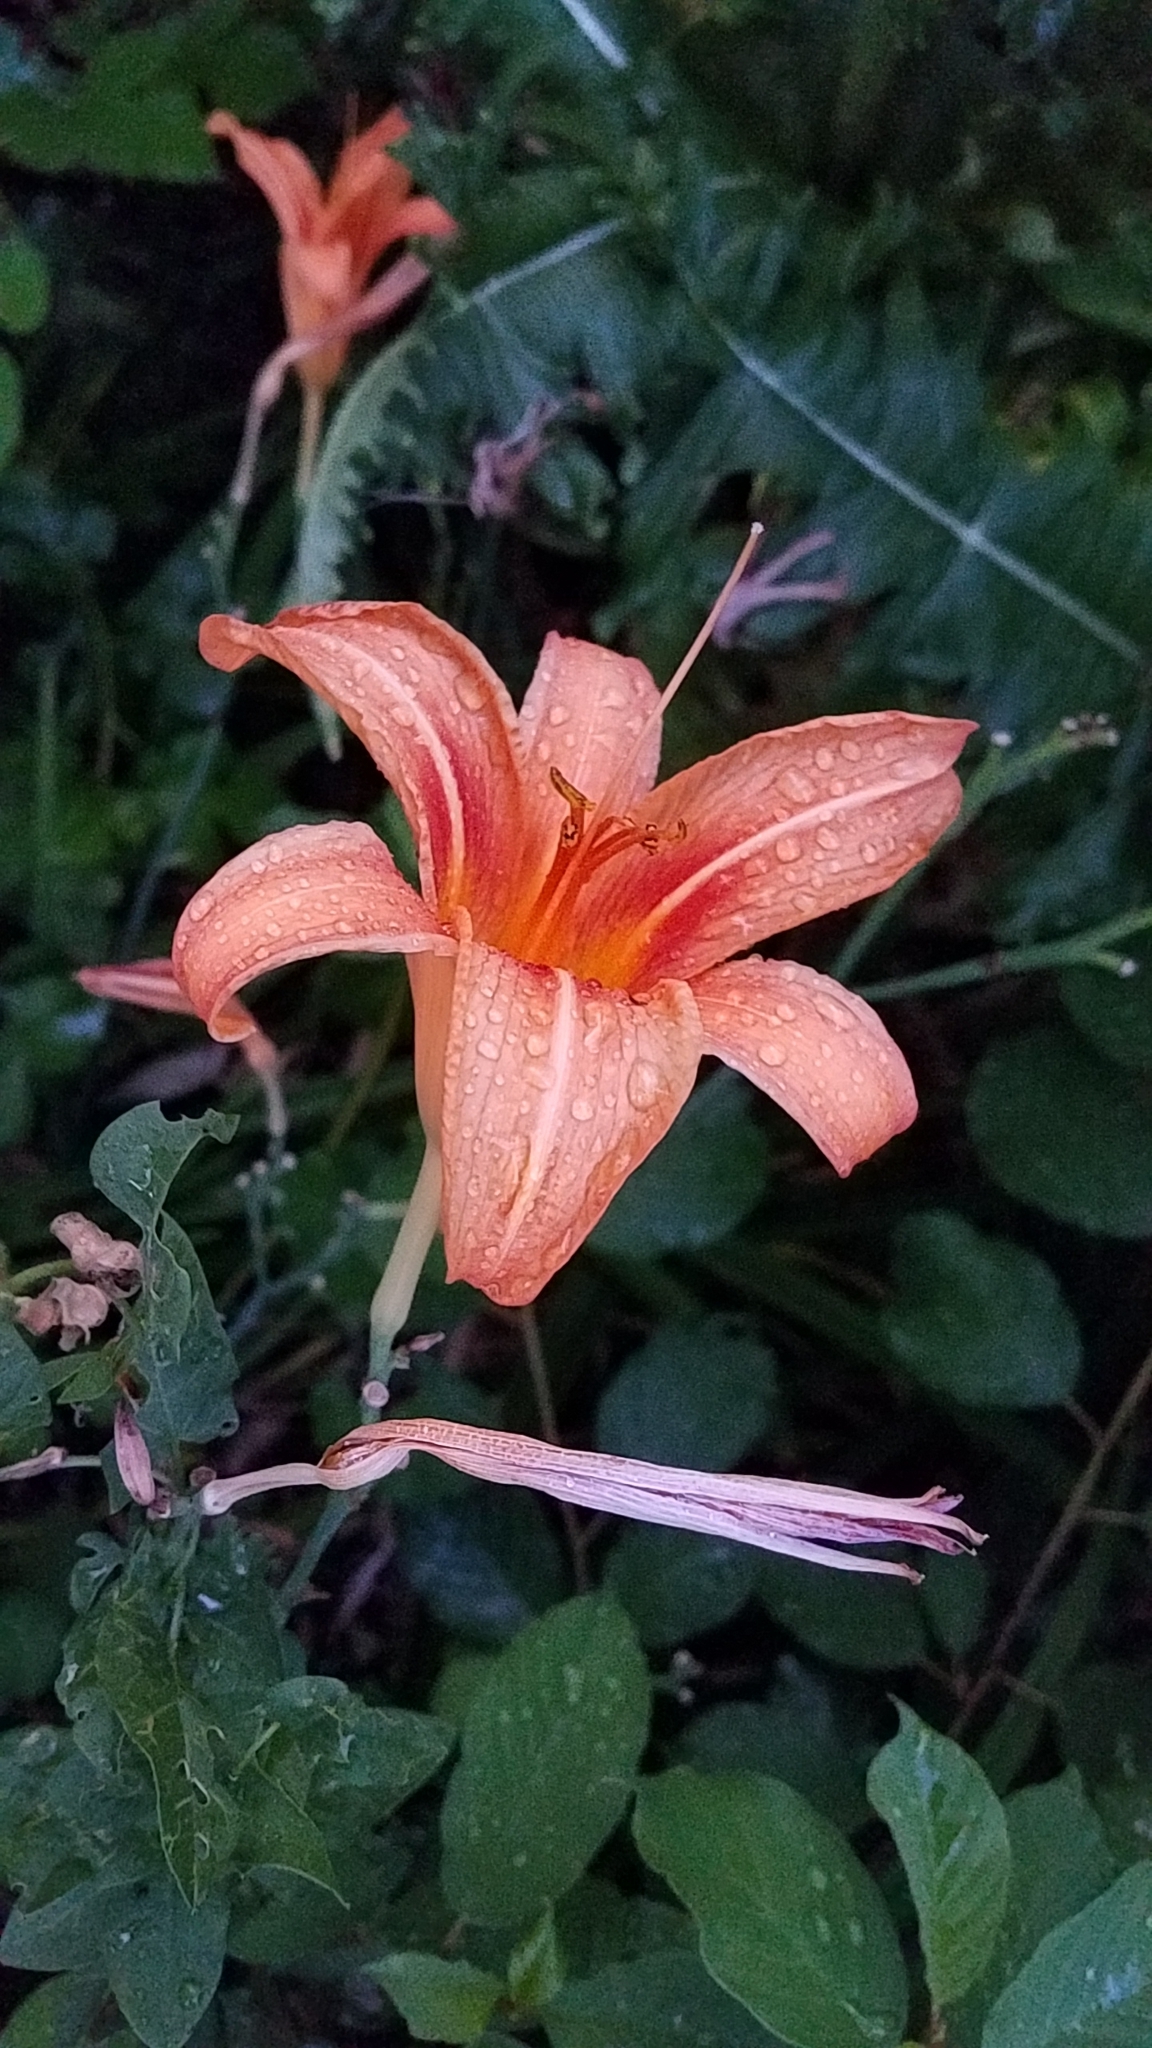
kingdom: Plantae
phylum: Tracheophyta
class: Liliopsida
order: Asparagales
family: Asphodelaceae
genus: Hemerocallis
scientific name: Hemerocallis fulva
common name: Orange day-lily
